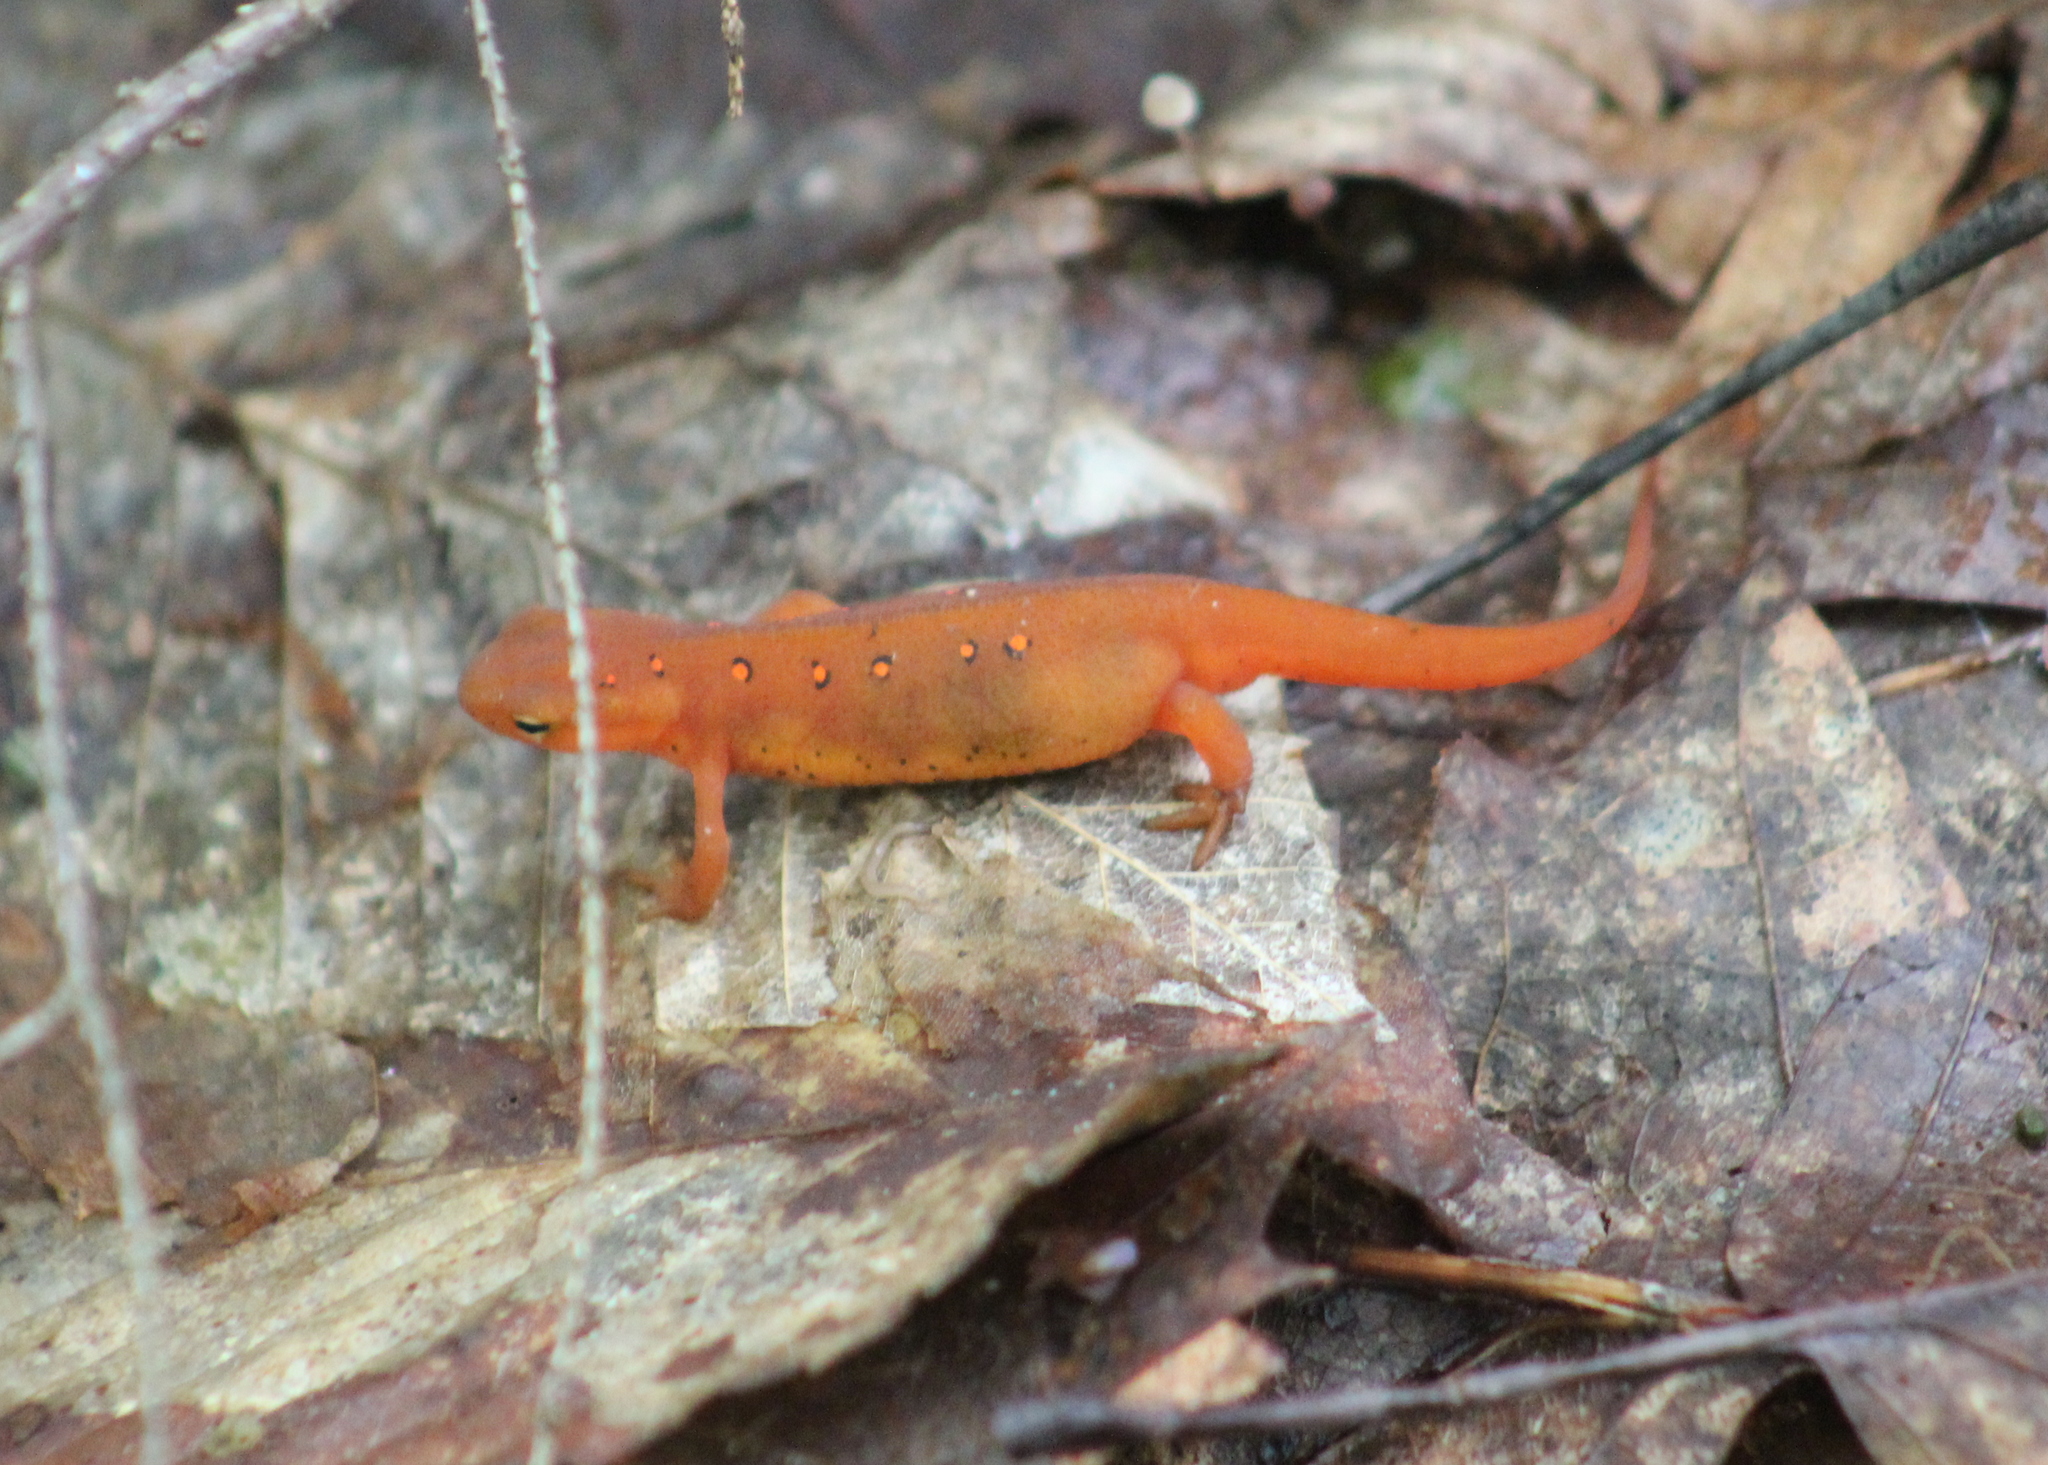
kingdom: Animalia
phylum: Chordata
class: Amphibia
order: Caudata
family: Salamandridae
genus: Notophthalmus
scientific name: Notophthalmus viridescens
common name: Eastern newt
